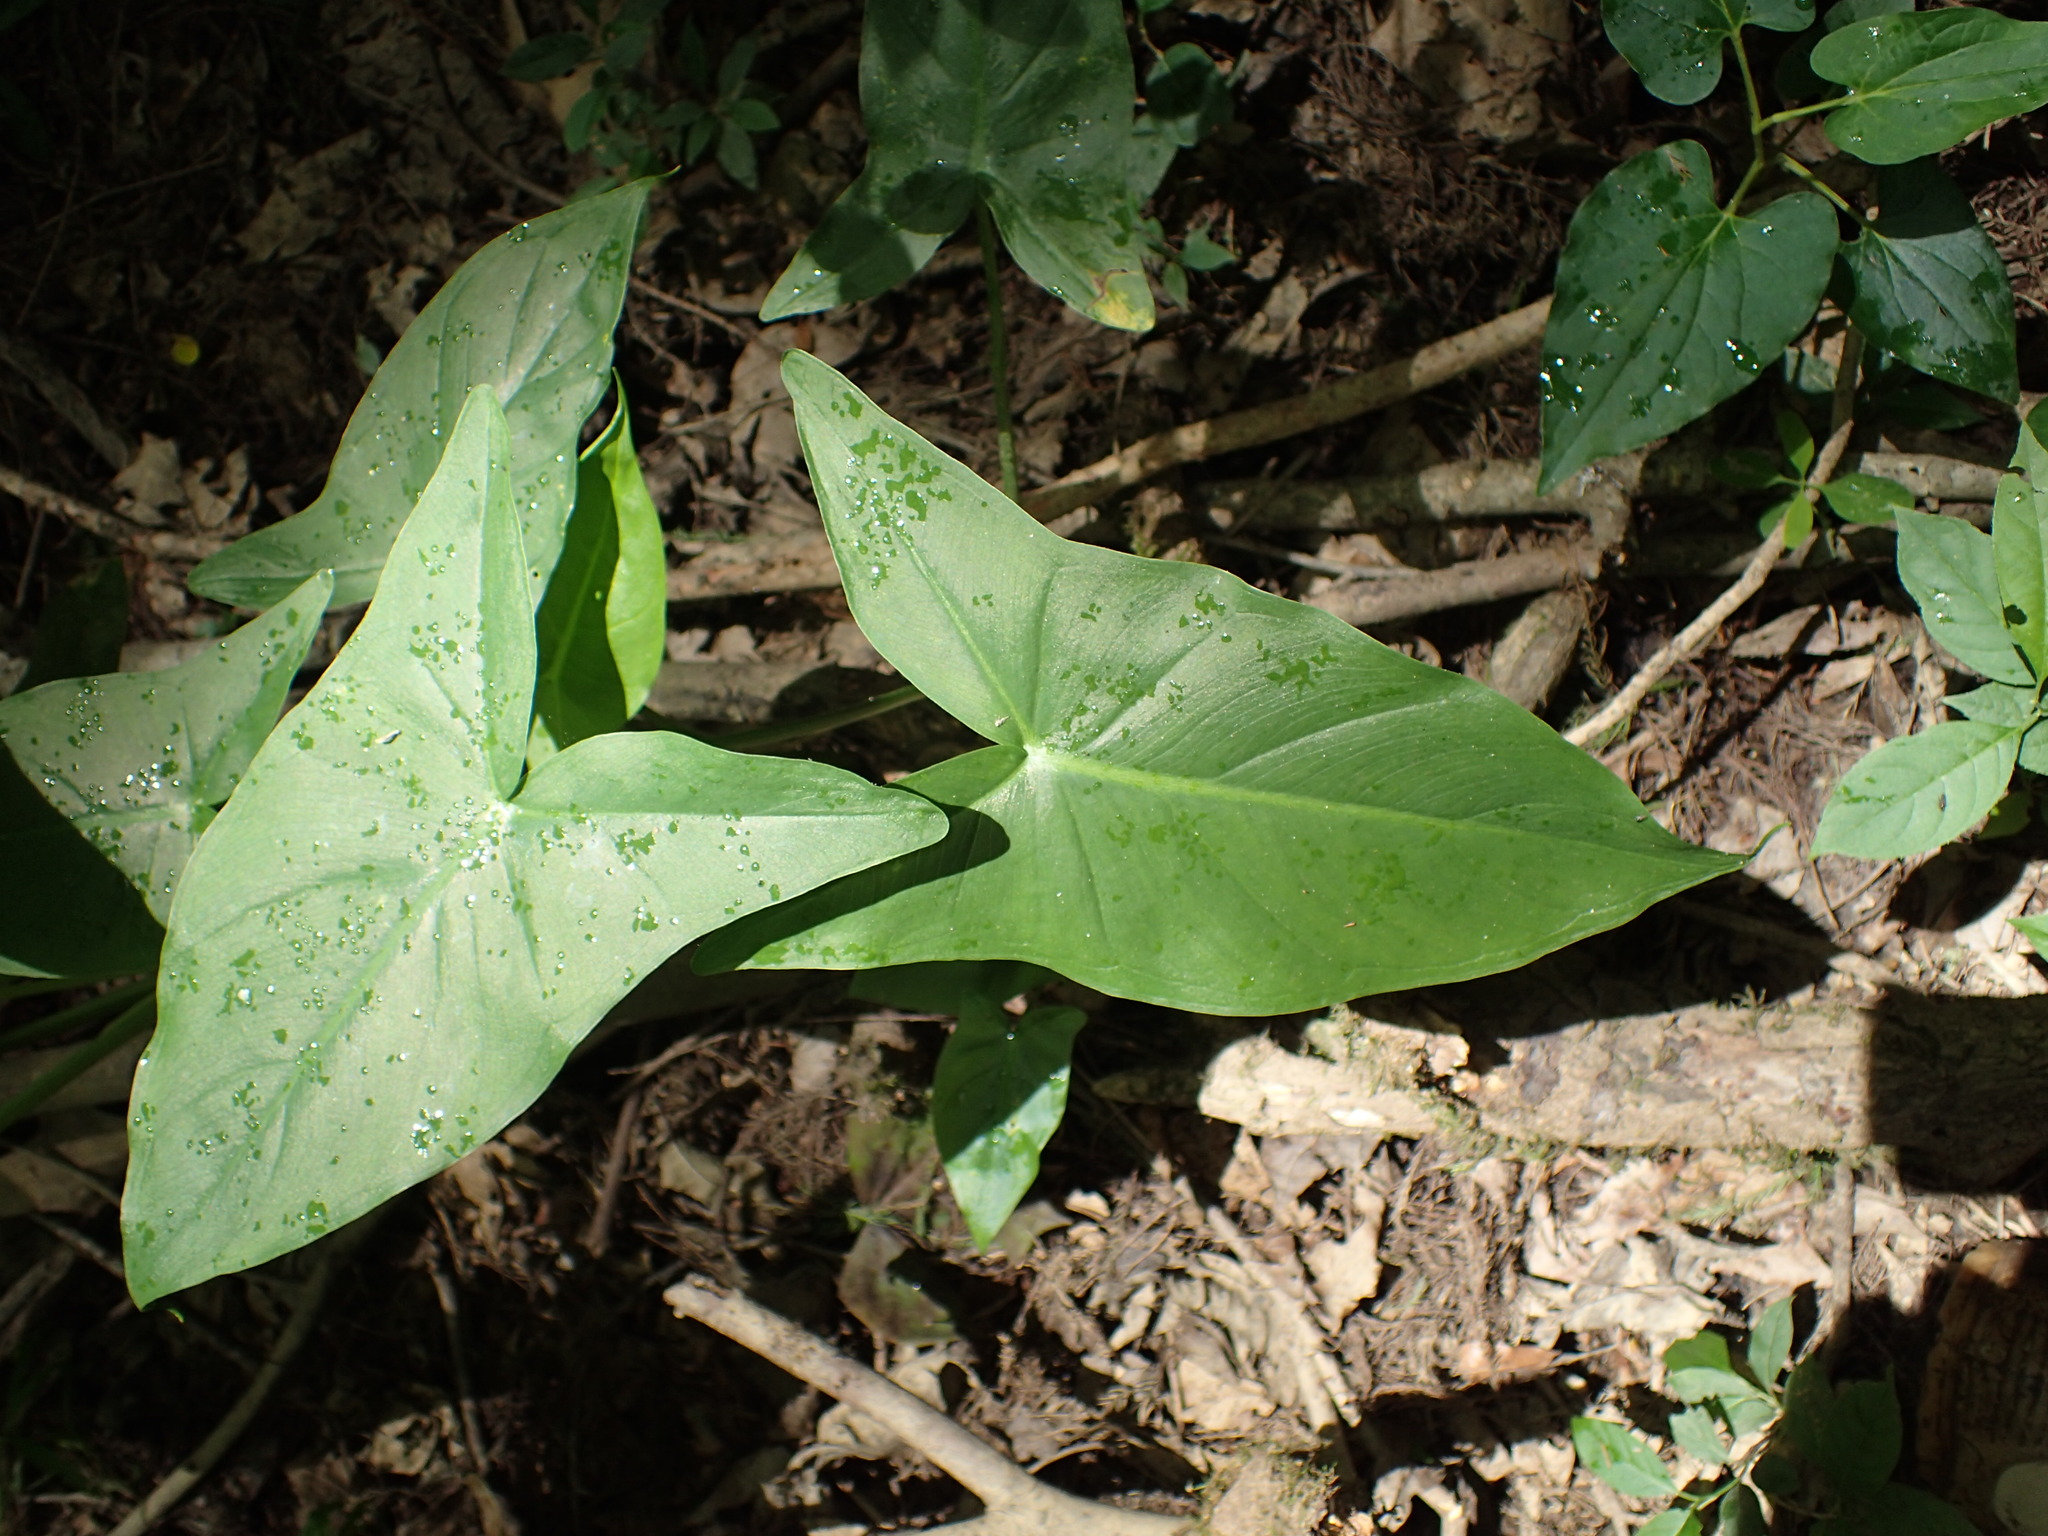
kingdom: Plantae
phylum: Tracheophyta
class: Liliopsida
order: Alismatales
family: Araceae
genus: Peltandra
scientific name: Peltandra virginica
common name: Arrow arum
